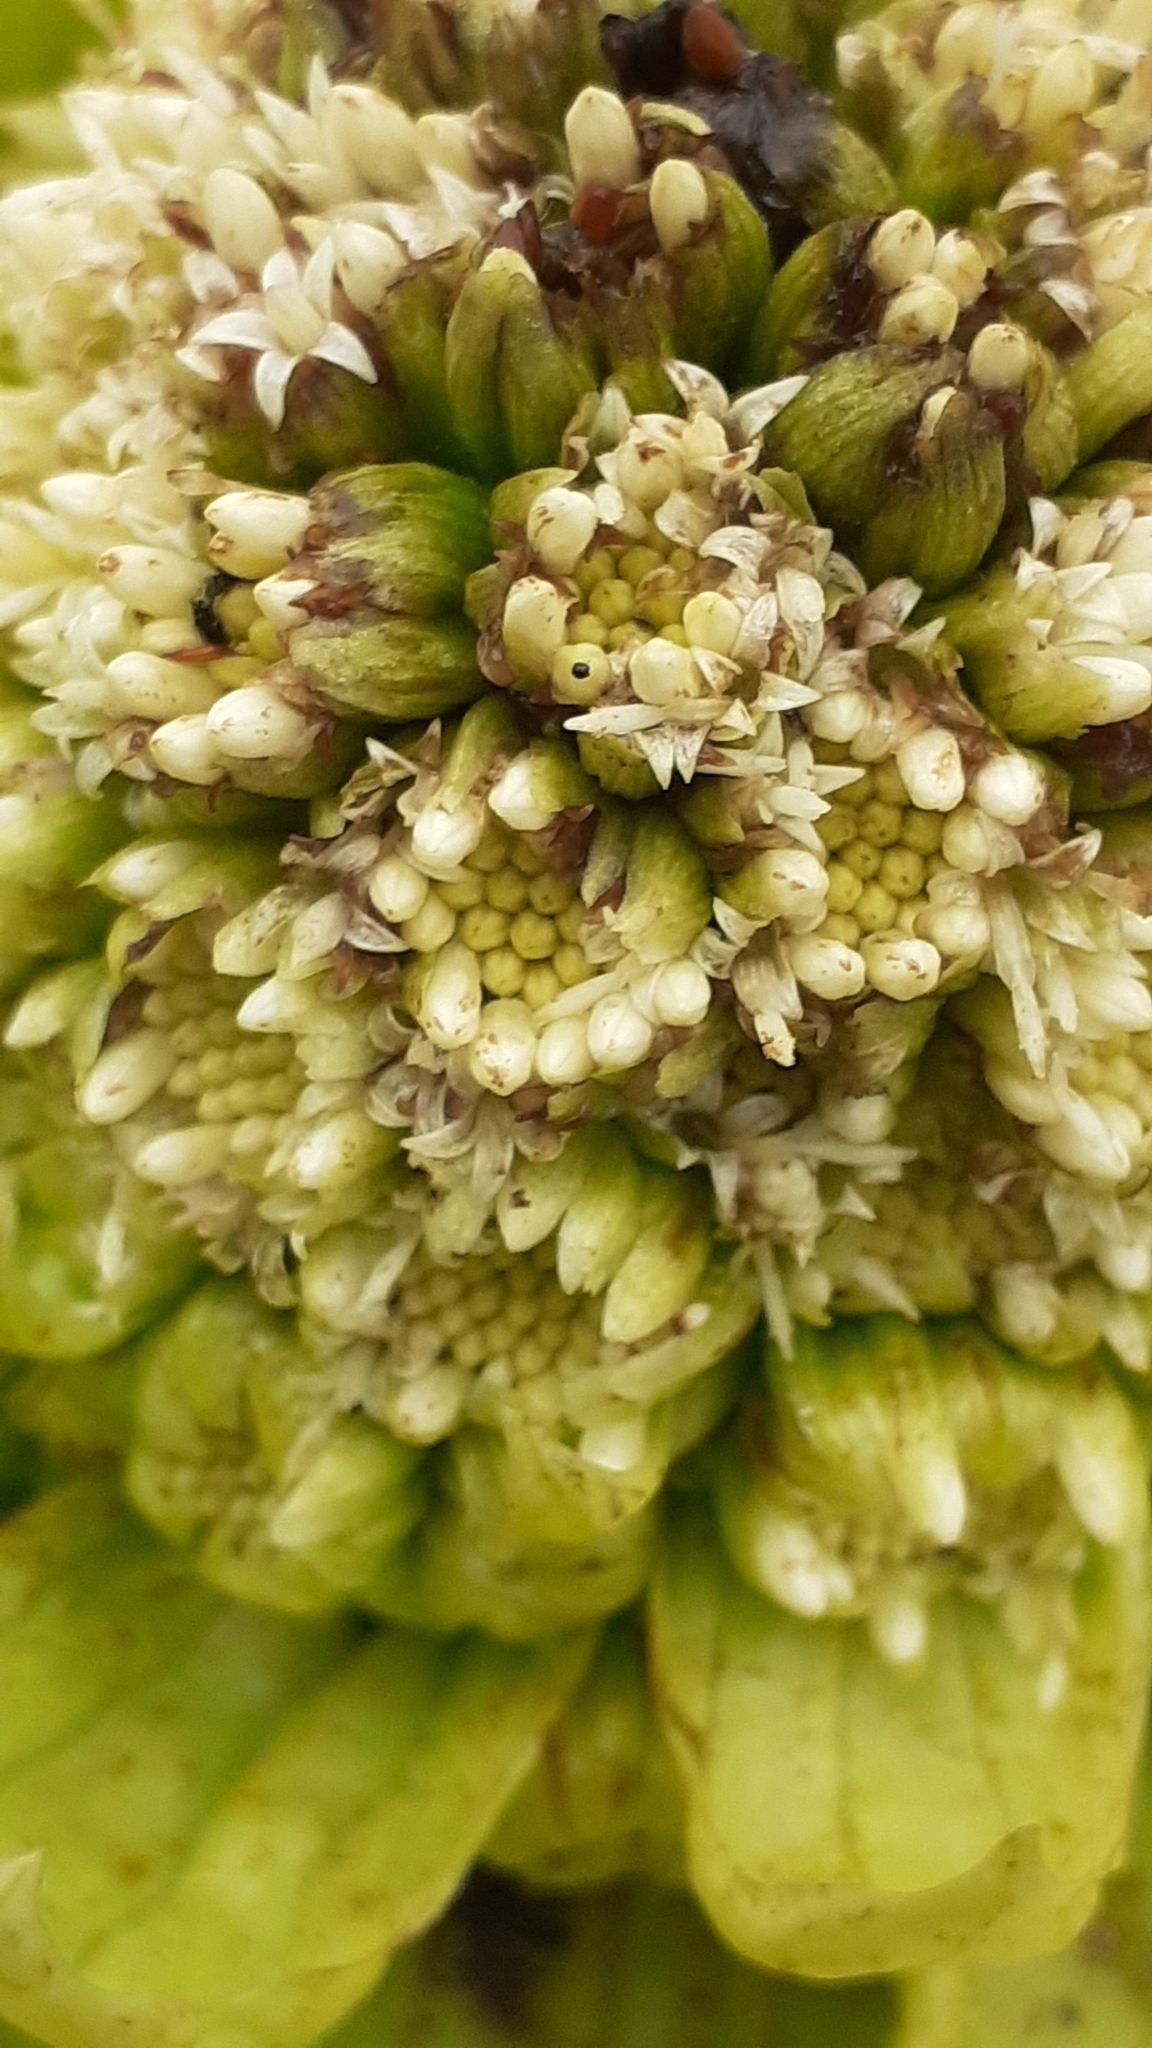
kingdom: Plantae
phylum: Tracheophyta
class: Magnoliopsida
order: Asterales
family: Asteraceae
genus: Petasites
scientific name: Petasites japonicus
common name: Giant butterbur
